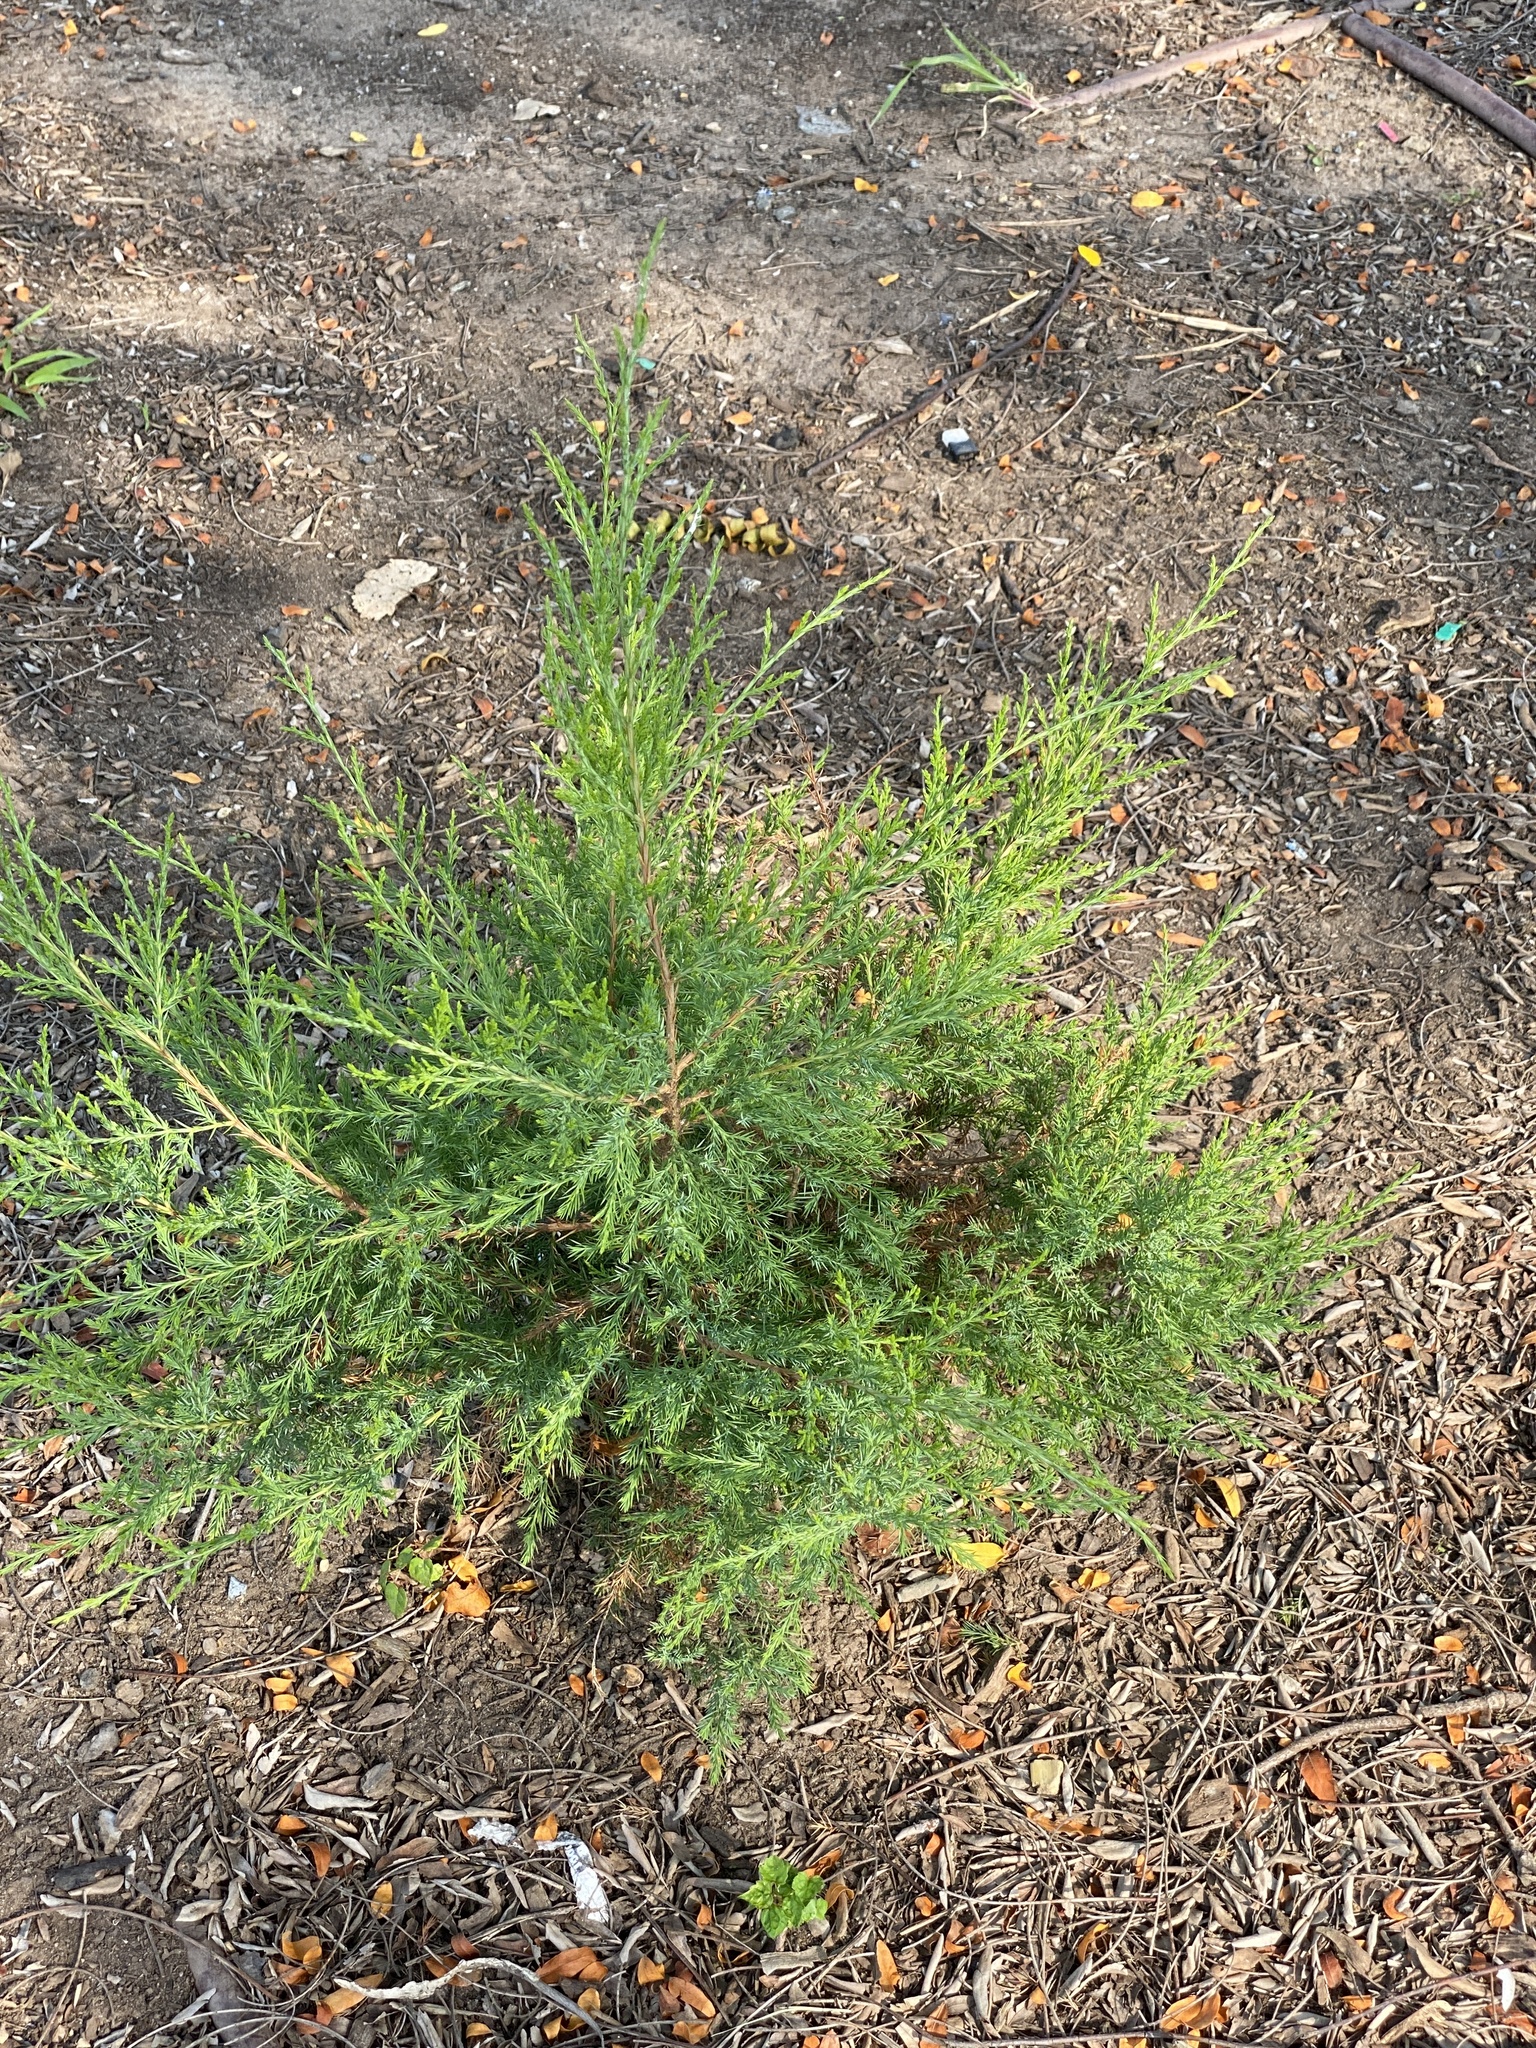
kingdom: Plantae
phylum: Tracheophyta
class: Pinopsida
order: Pinales
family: Cupressaceae
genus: Juniperus
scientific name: Juniperus virginiana
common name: Red juniper
